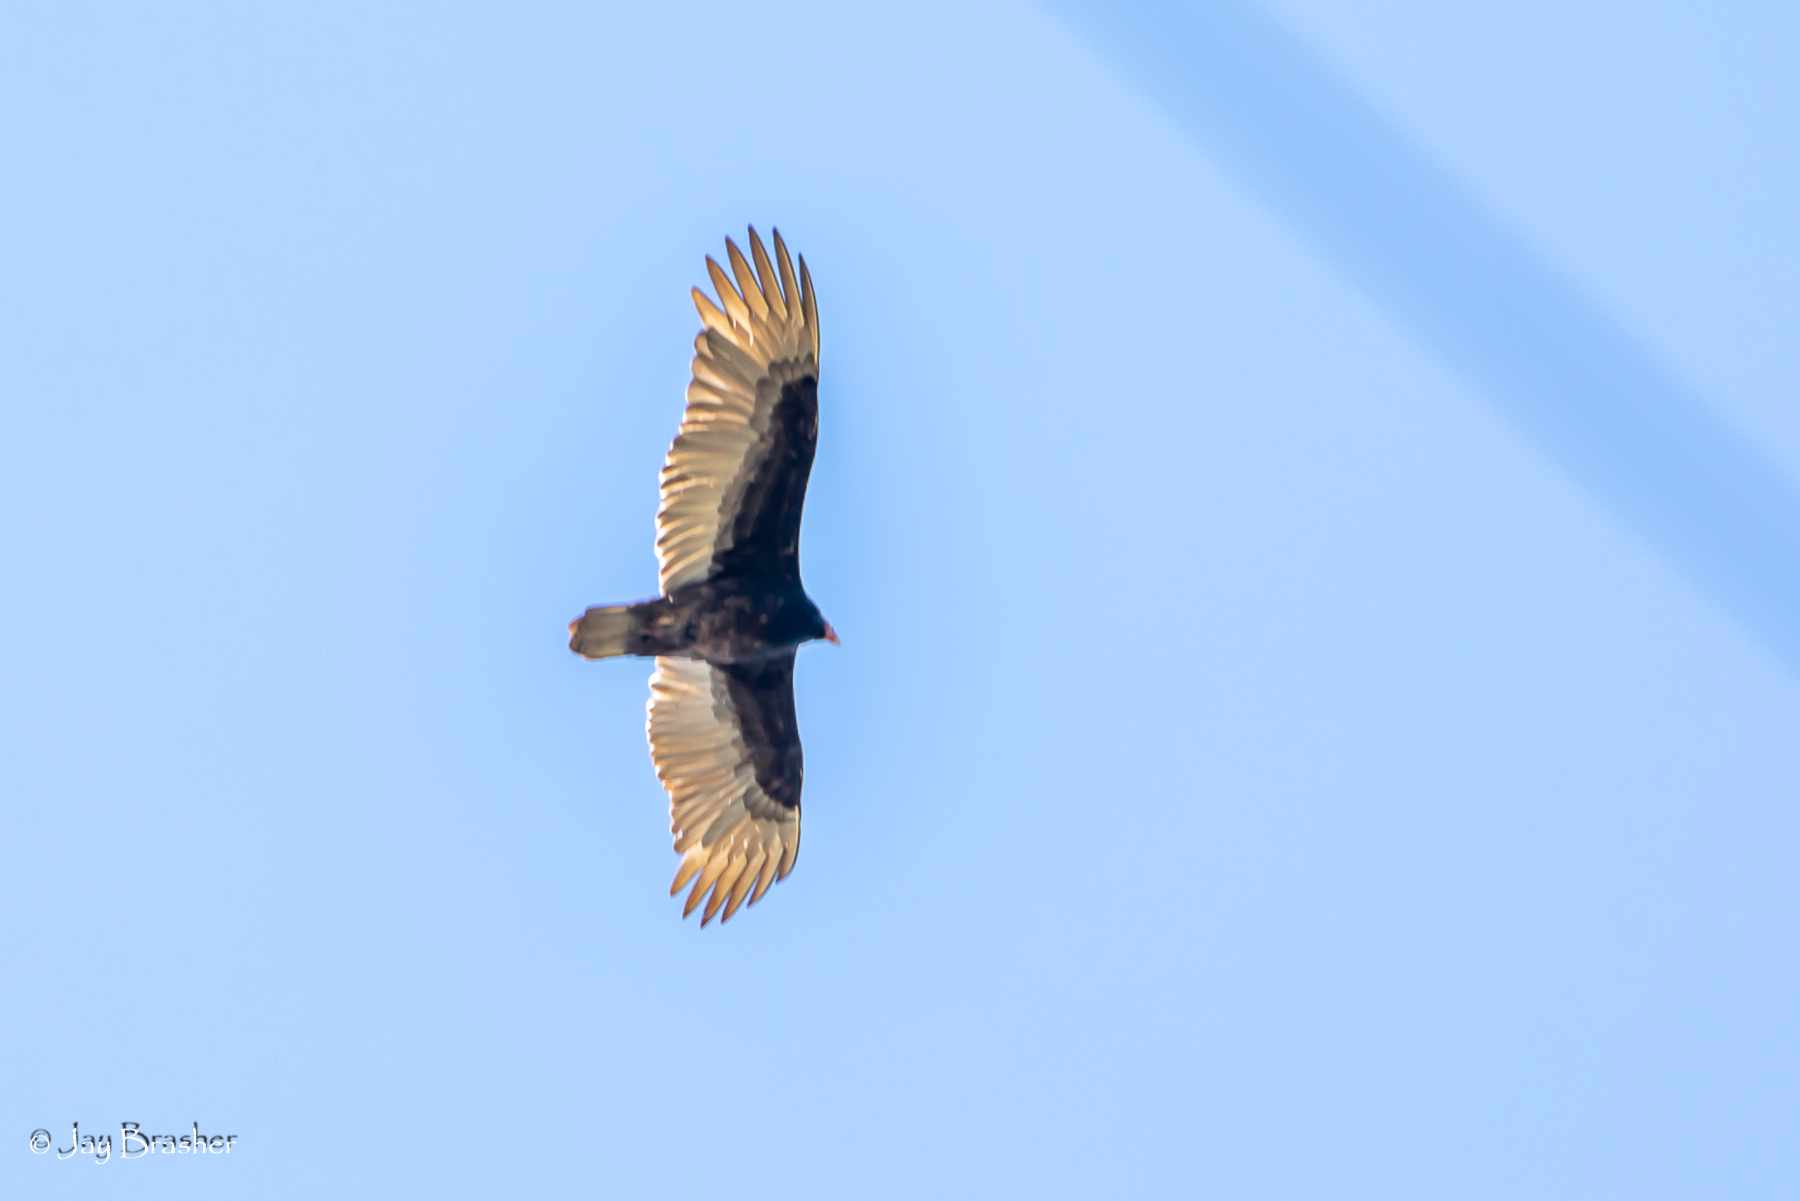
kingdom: Animalia
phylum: Chordata
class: Aves
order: Accipitriformes
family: Cathartidae
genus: Cathartes
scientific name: Cathartes aura
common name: Turkey vulture
